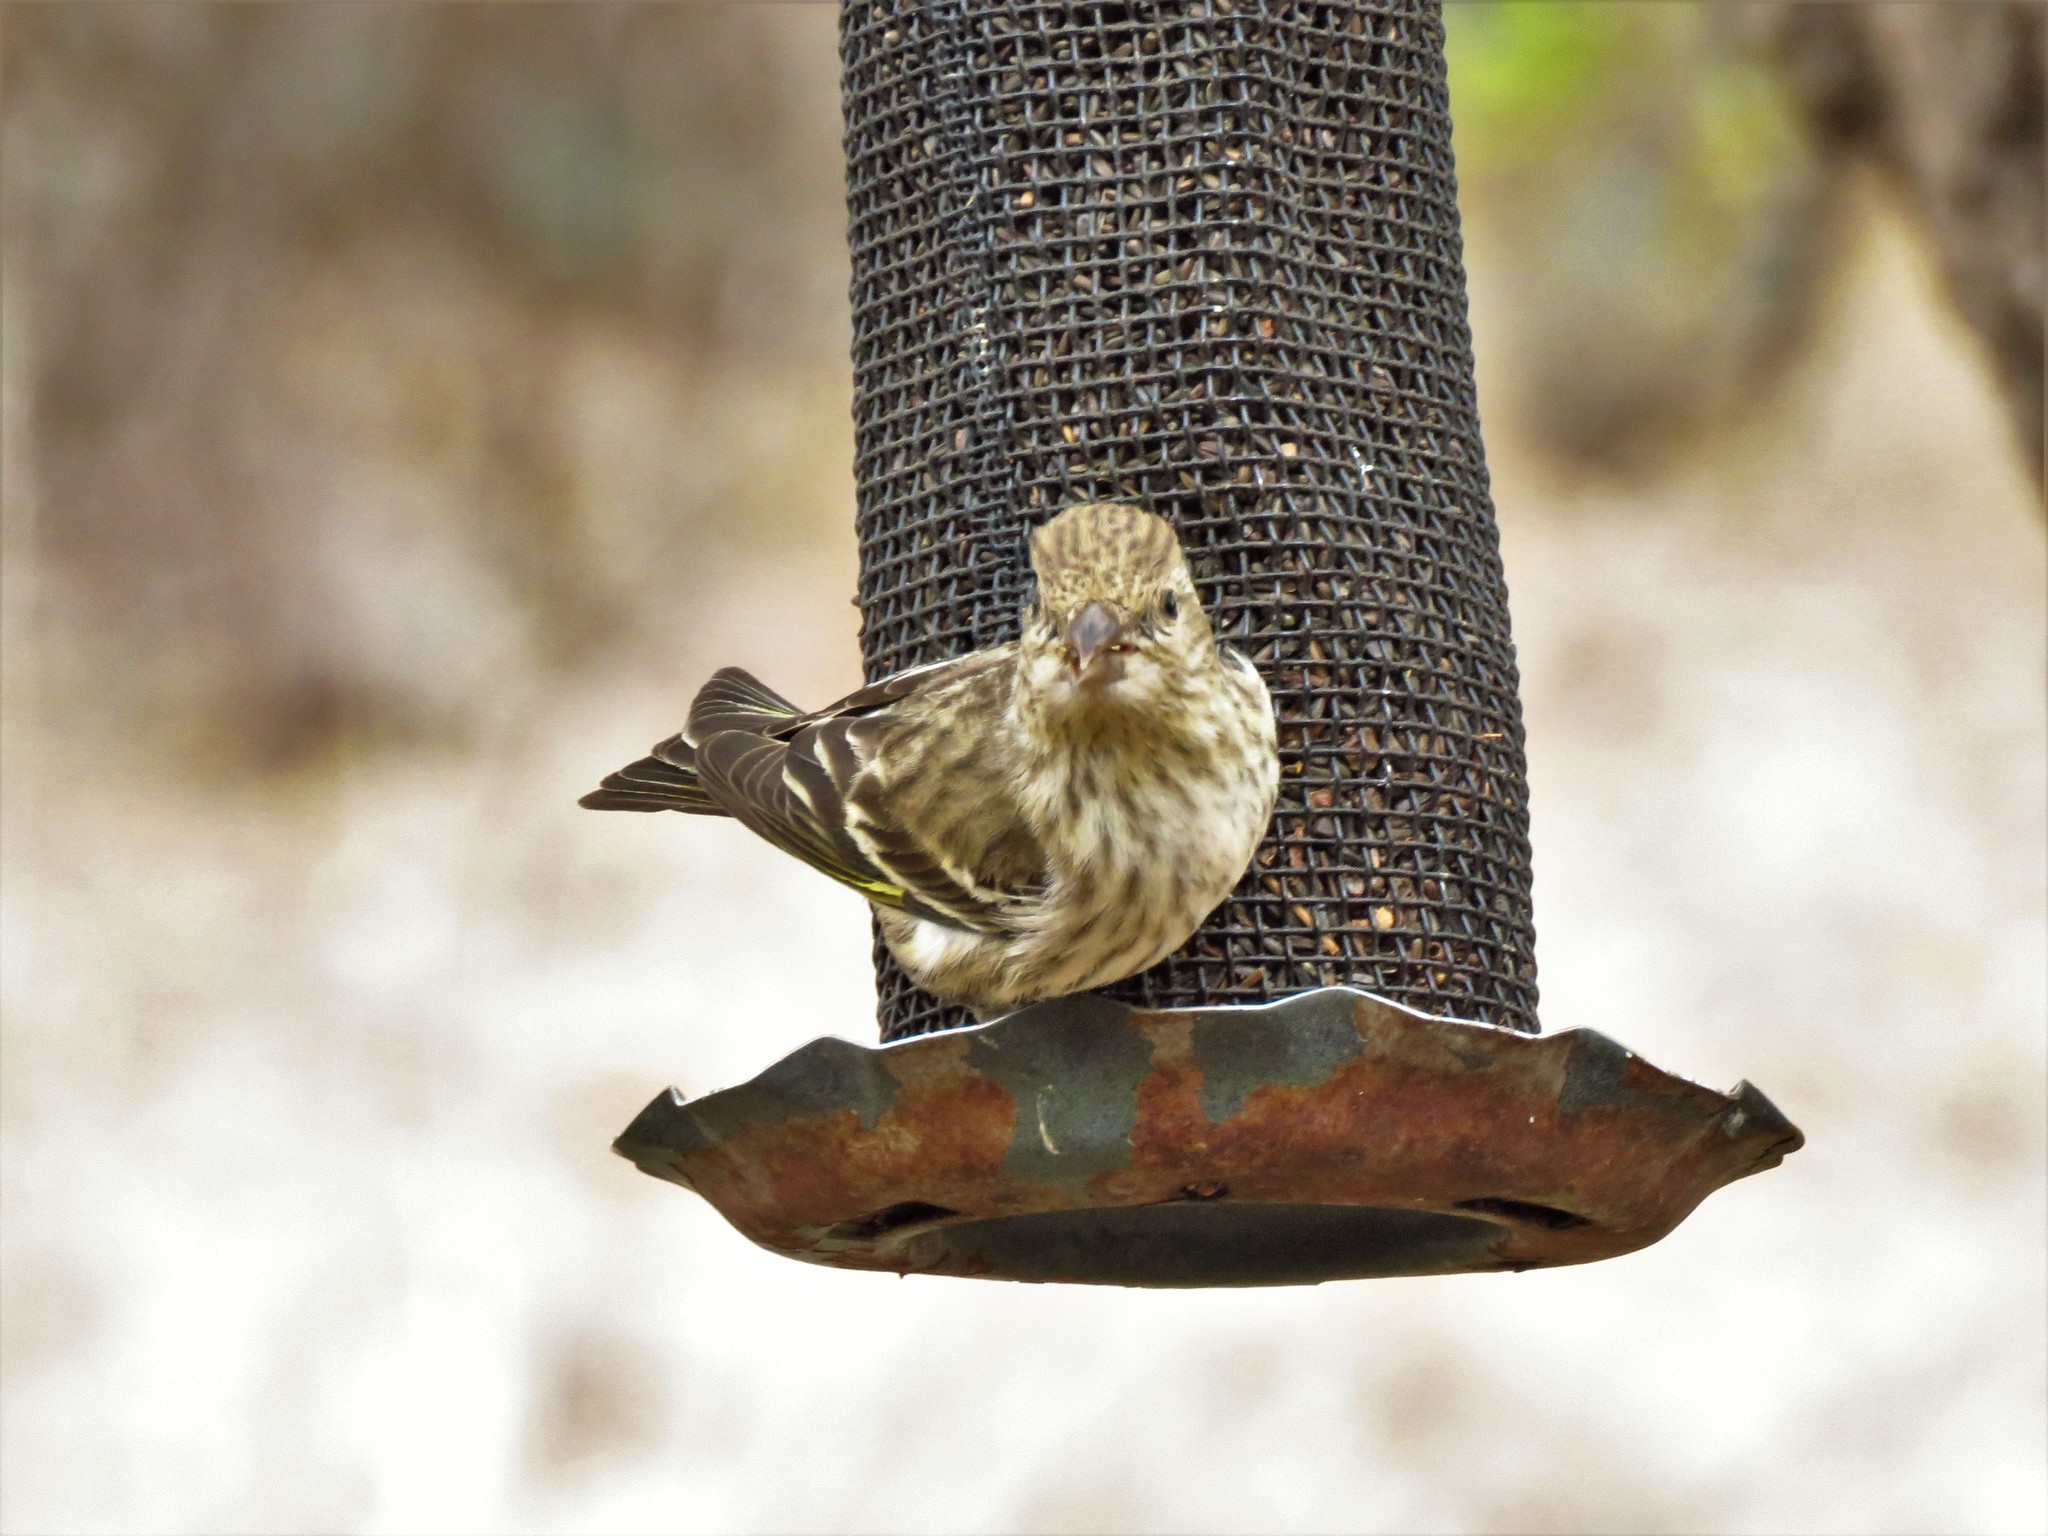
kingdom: Animalia
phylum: Chordata
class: Aves
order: Passeriformes
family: Fringillidae
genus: Spinus
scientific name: Spinus pinus
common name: Pine siskin
